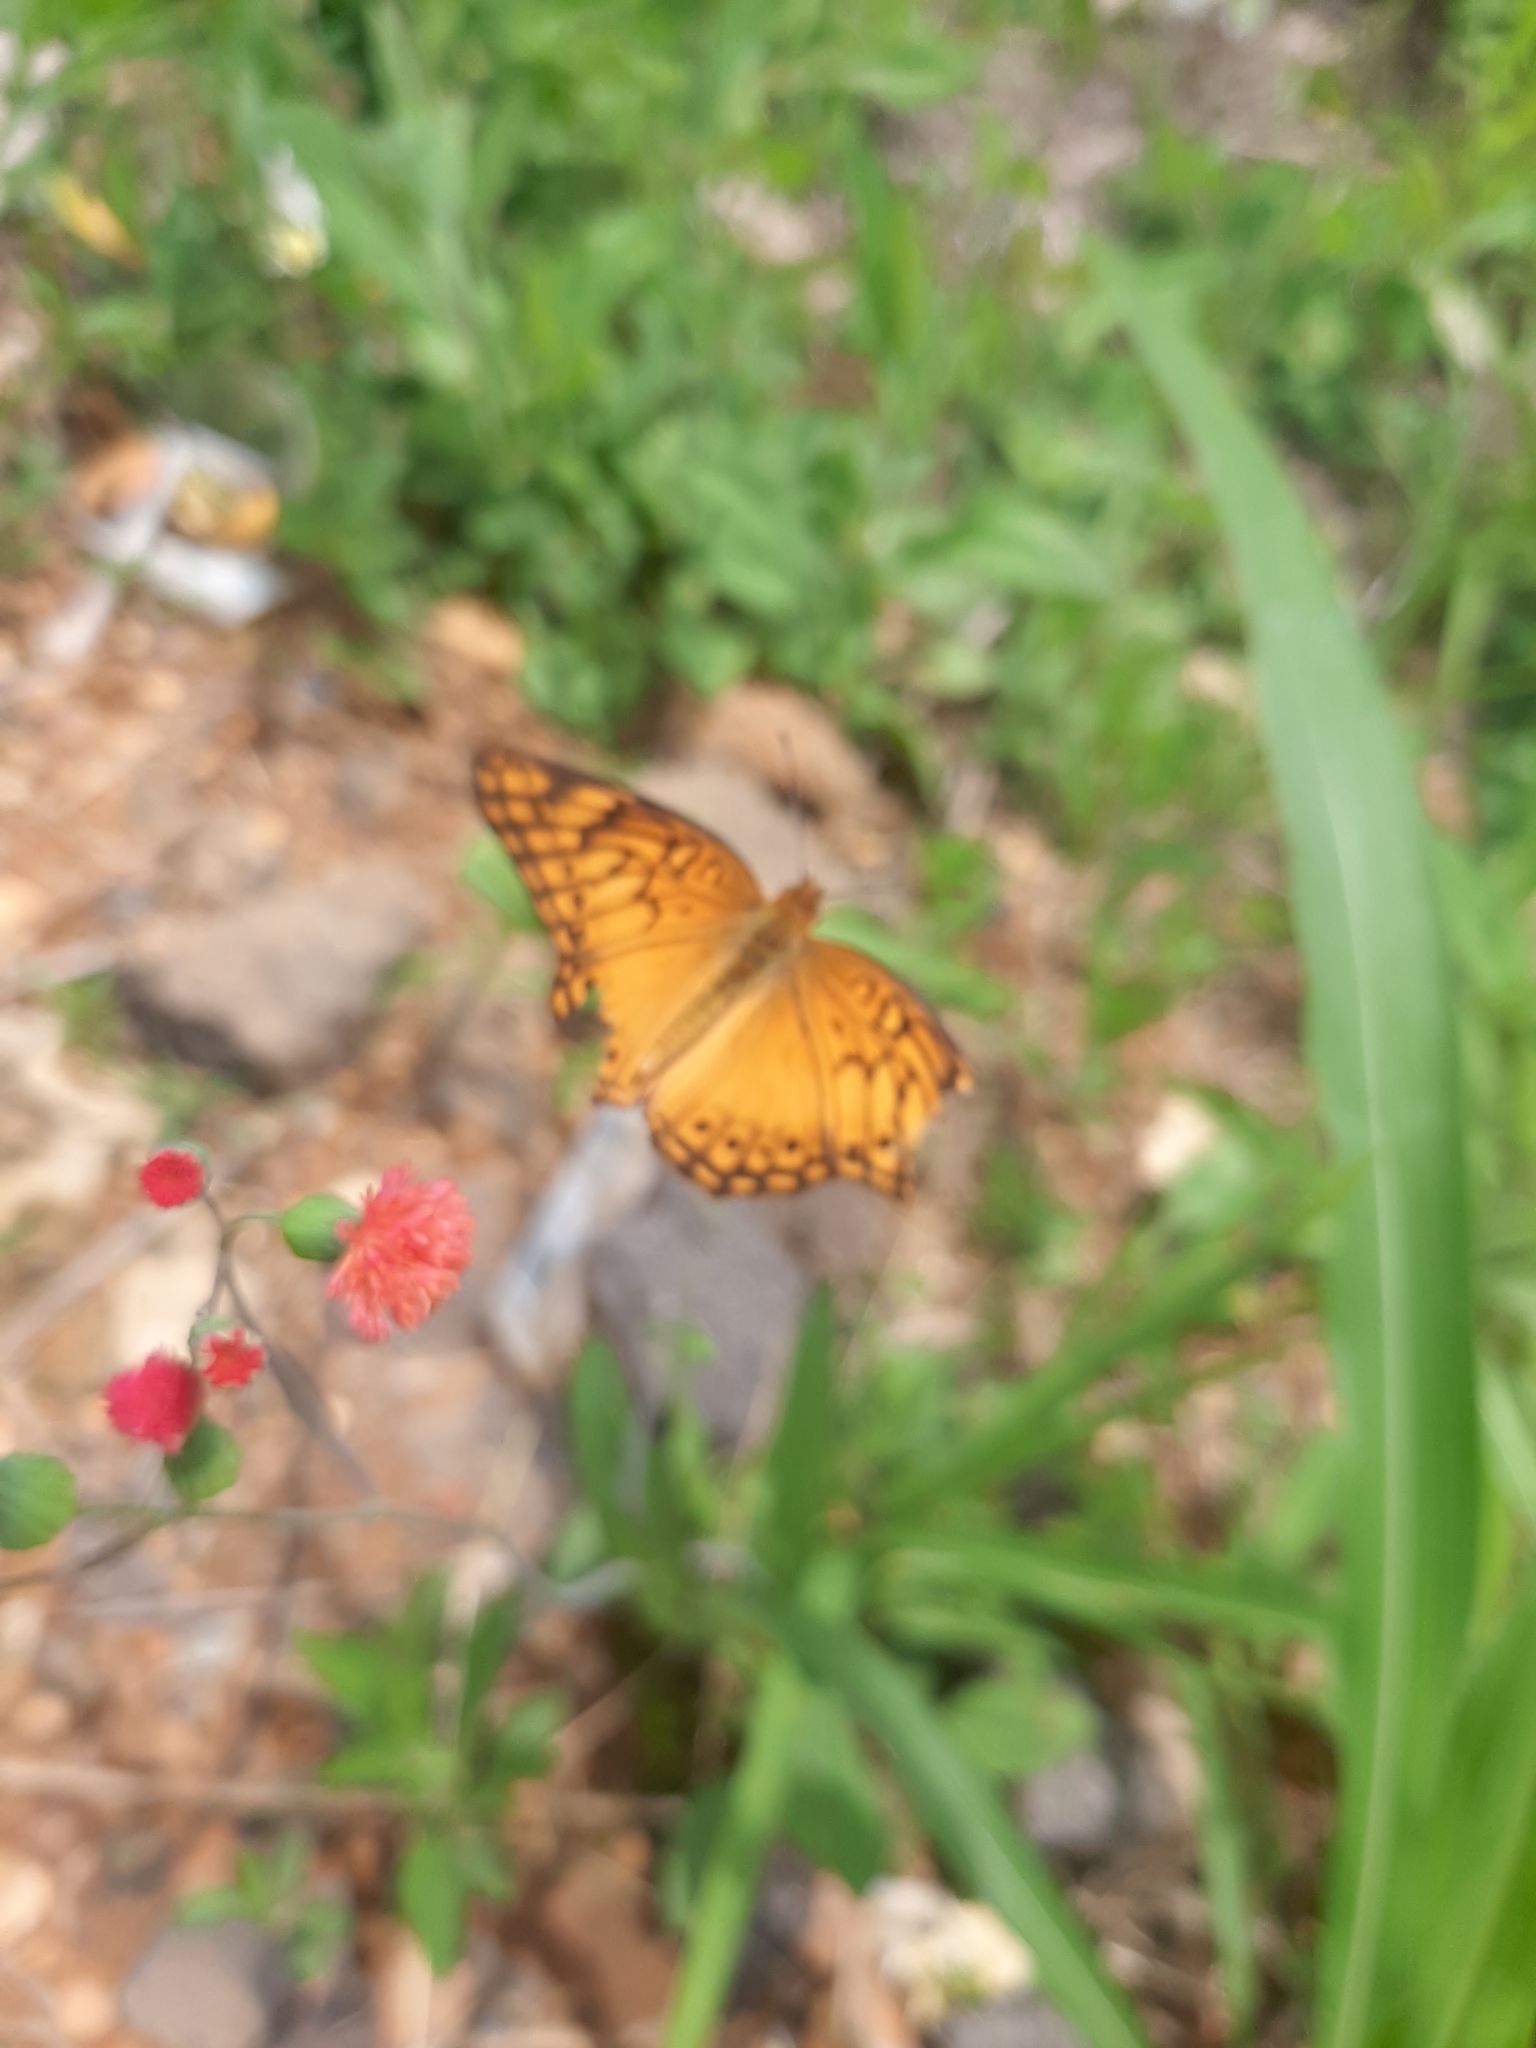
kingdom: Animalia
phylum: Arthropoda
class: Insecta
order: Lepidoptera
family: Nymphalidae
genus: Euptoieta
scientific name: Euptoieta hegesia
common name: Mexican fritillary
